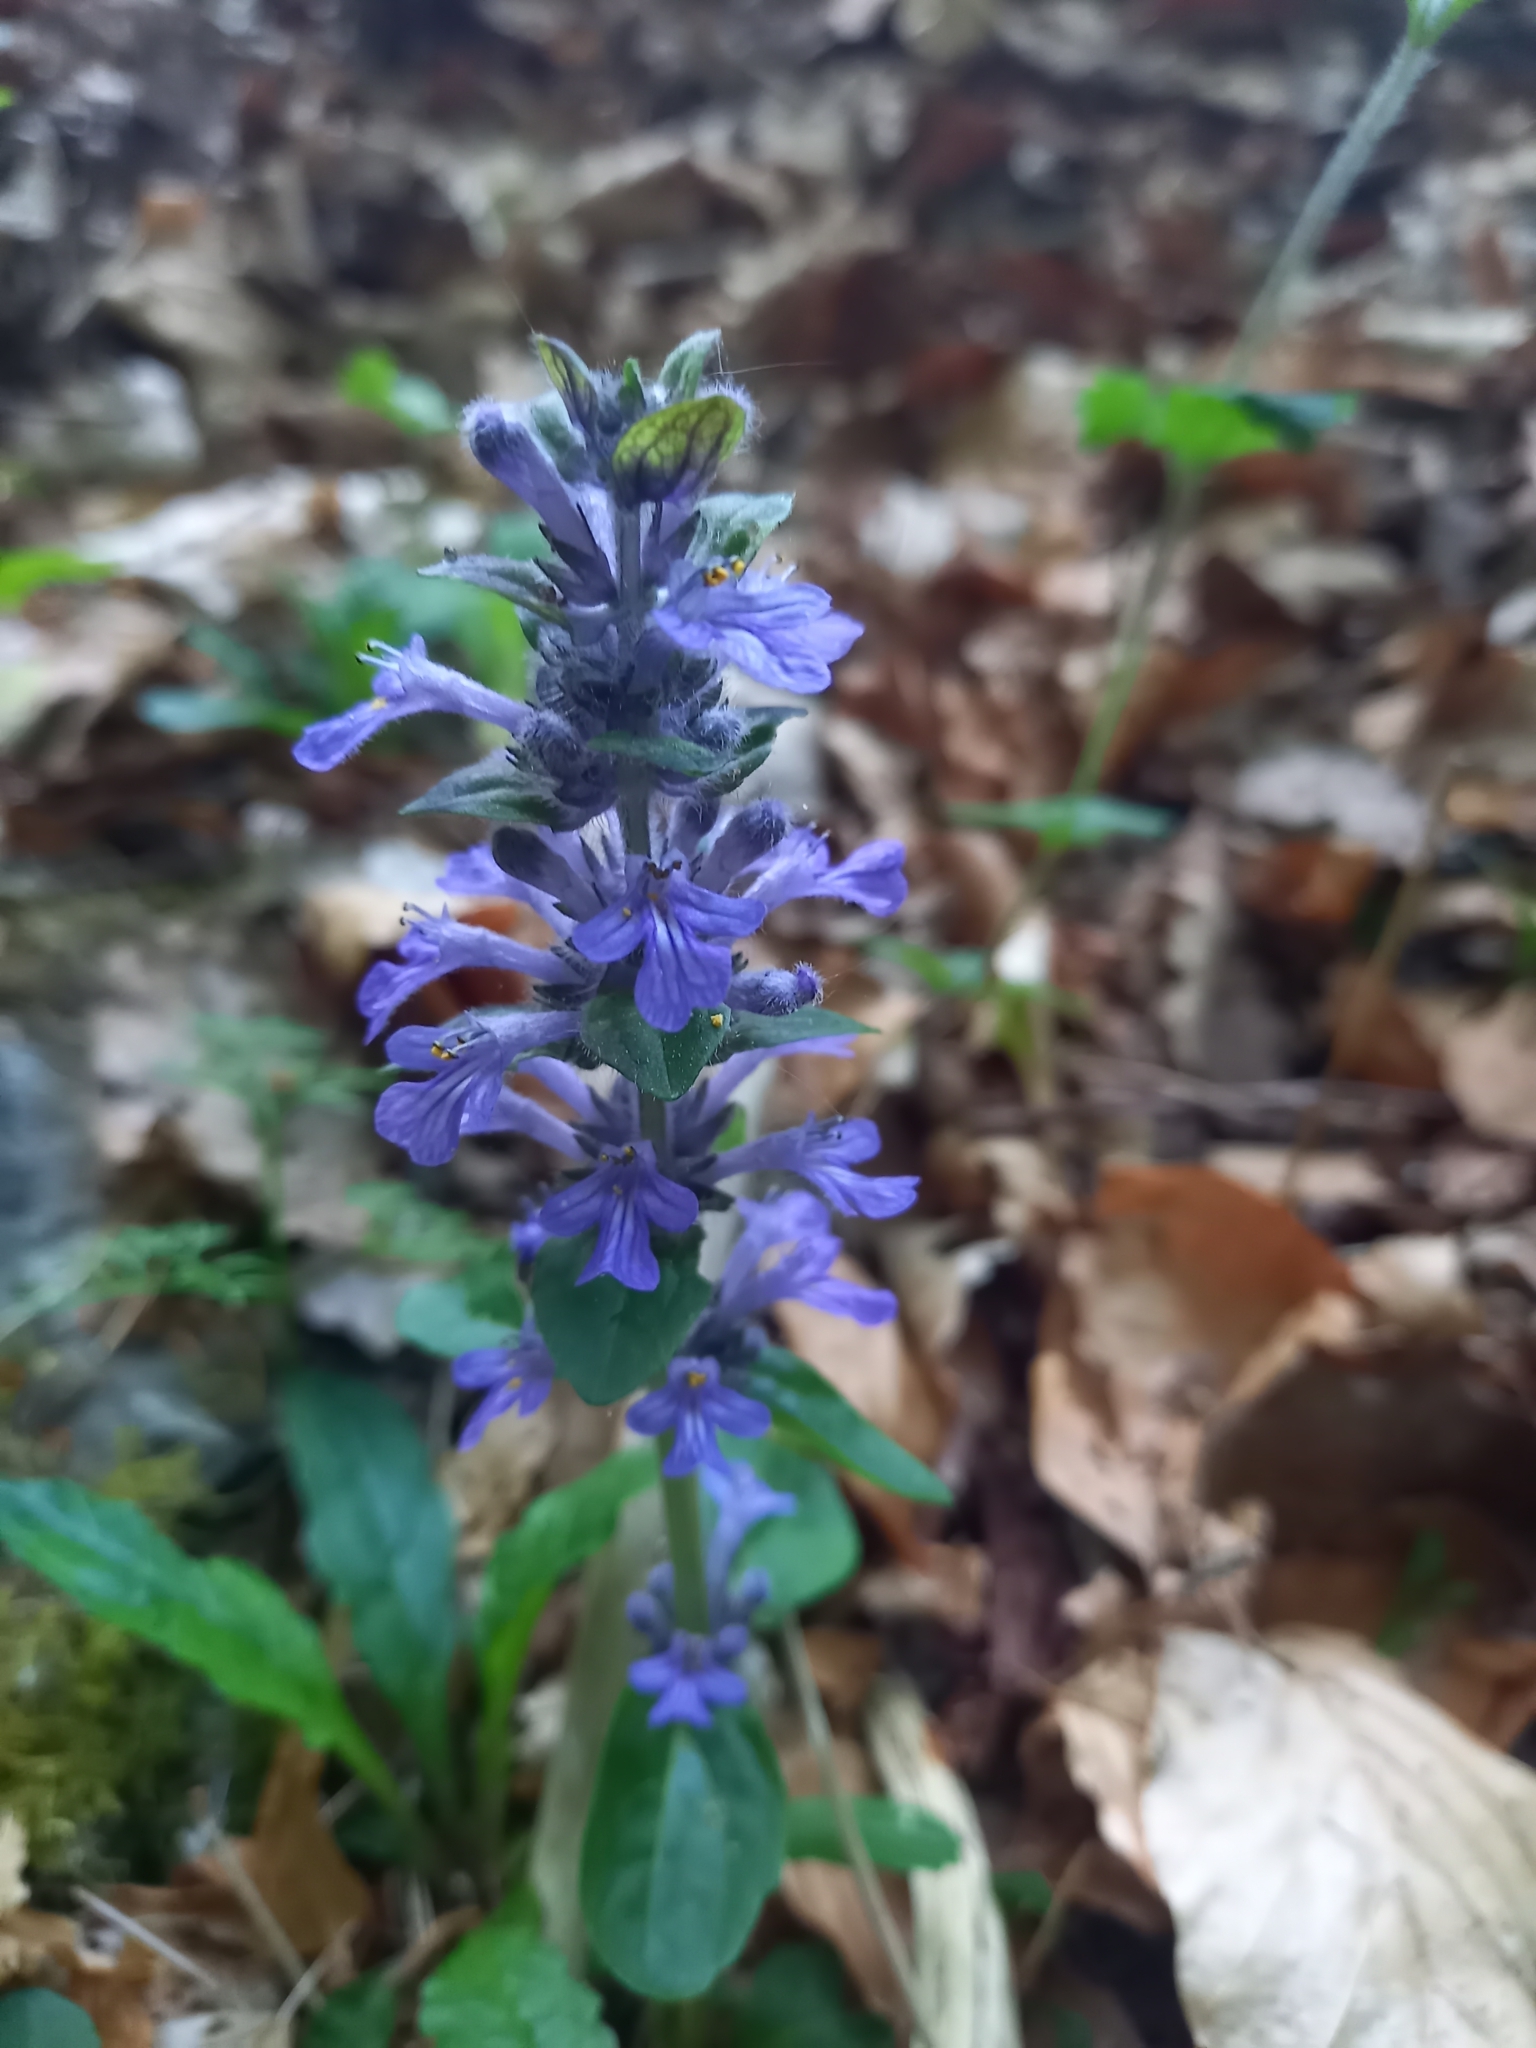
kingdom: Plantae
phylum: Tracheophyta
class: Magnoliopsida
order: Lamiales
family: Lamiaceae
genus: Ajuga
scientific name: Ajuga reptans
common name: Bugle
